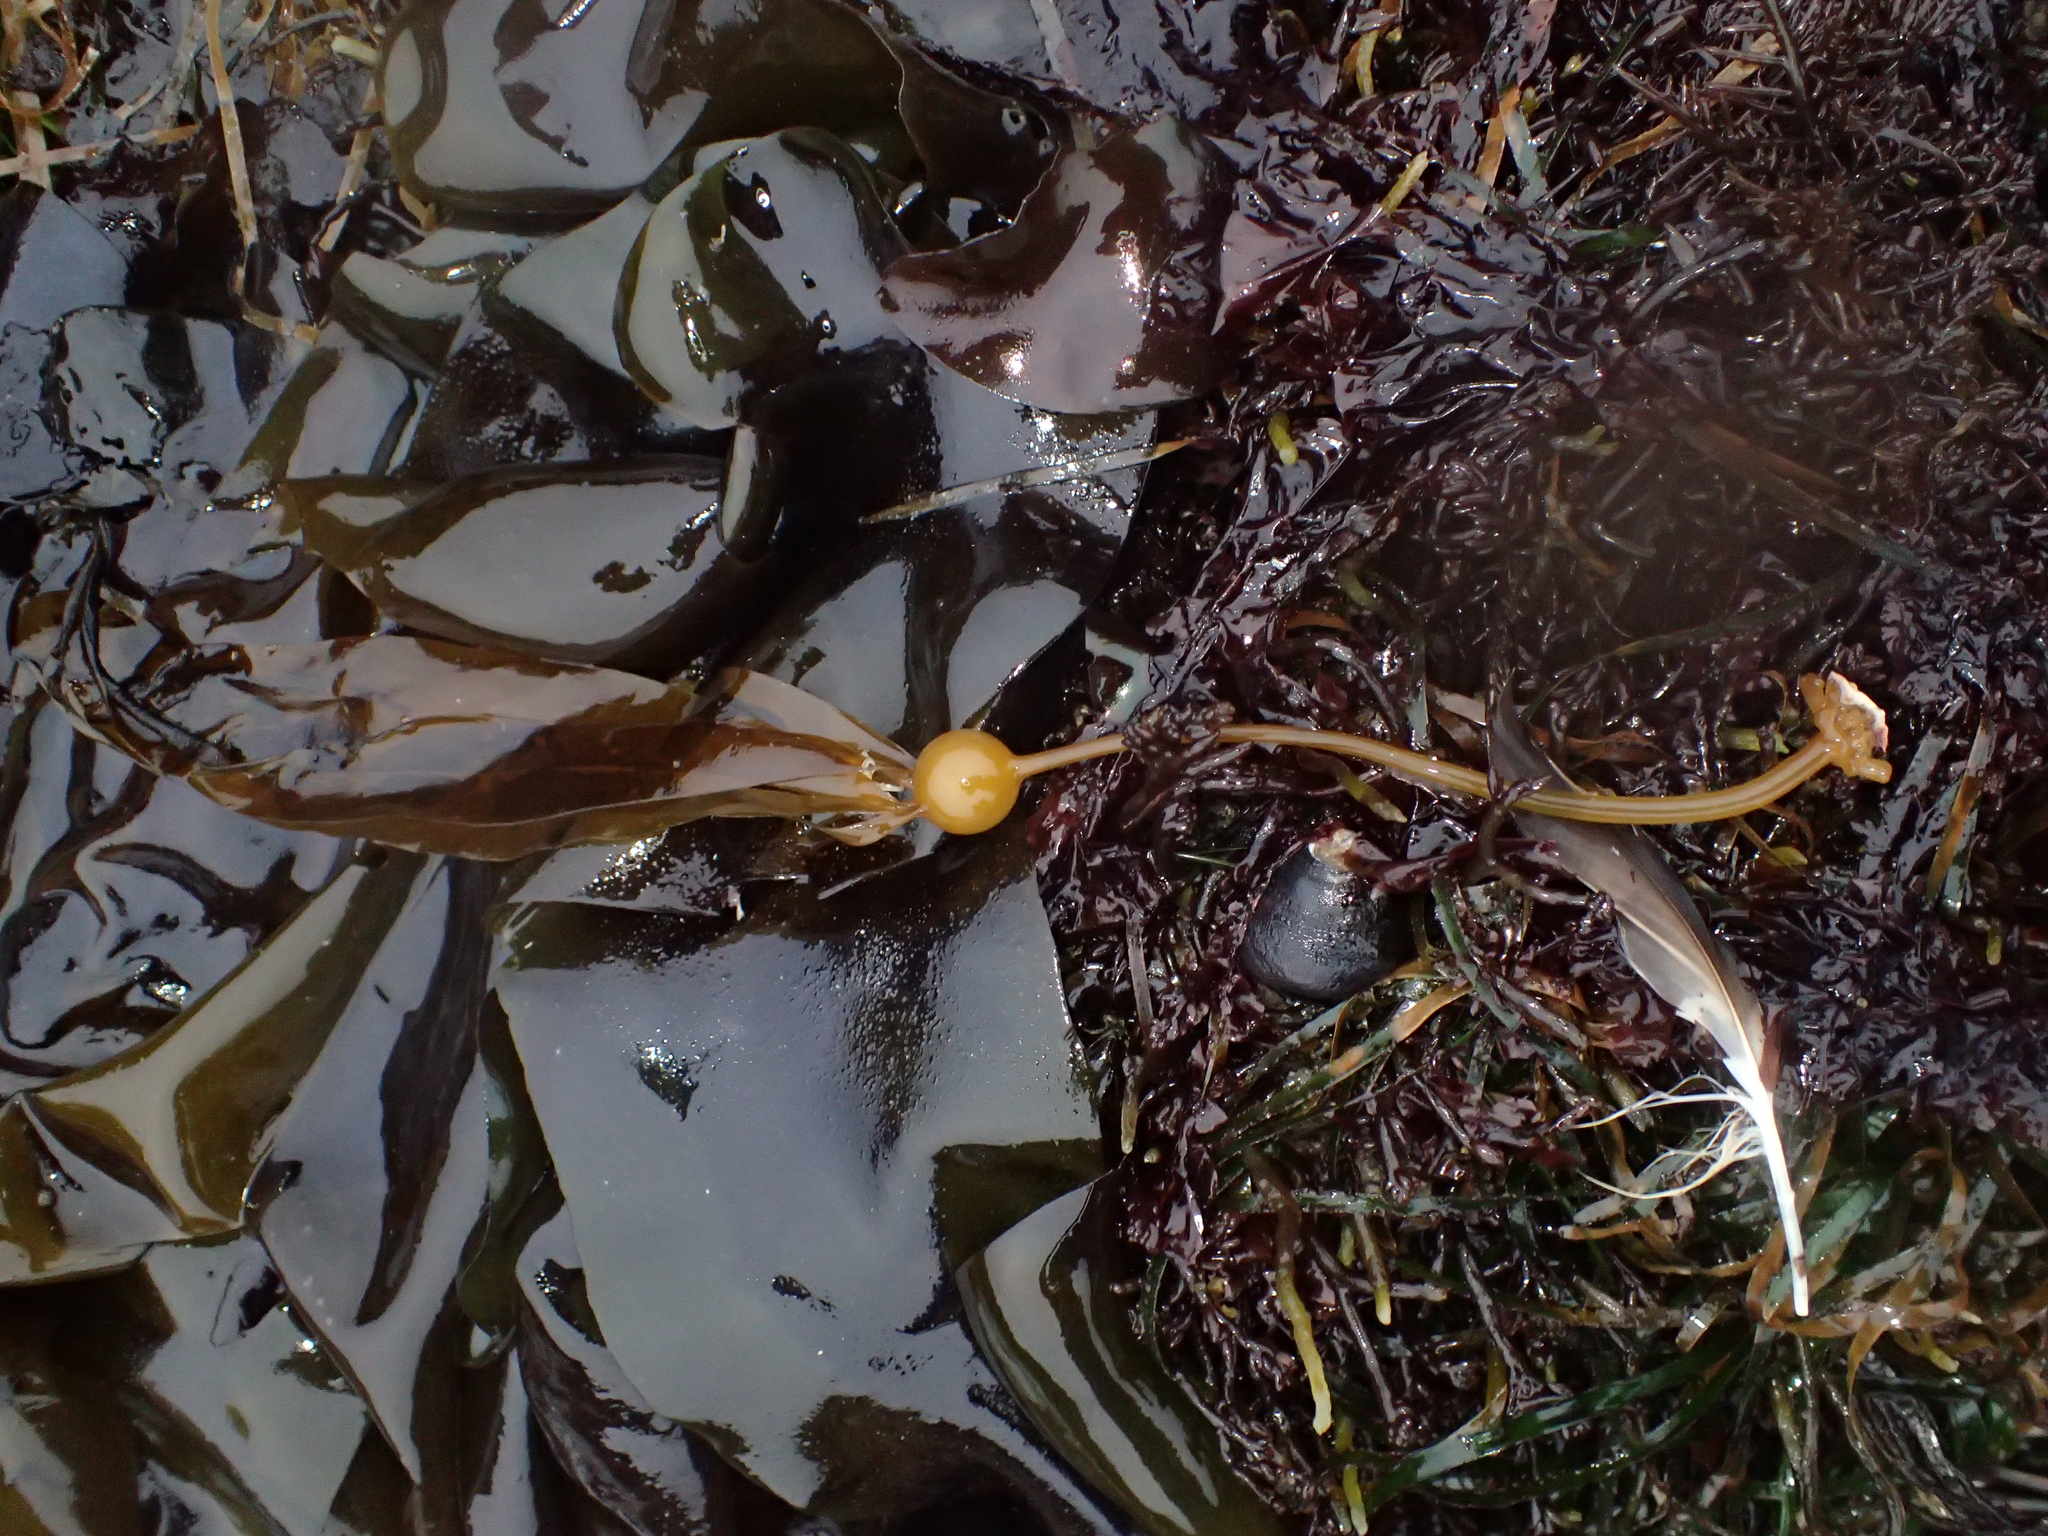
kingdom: Chromista
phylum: Ochrophyta
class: Phaeophyceae
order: Laminariales
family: Laminariaceae
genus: Nereocystis
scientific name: Nereocystis luetkeana
